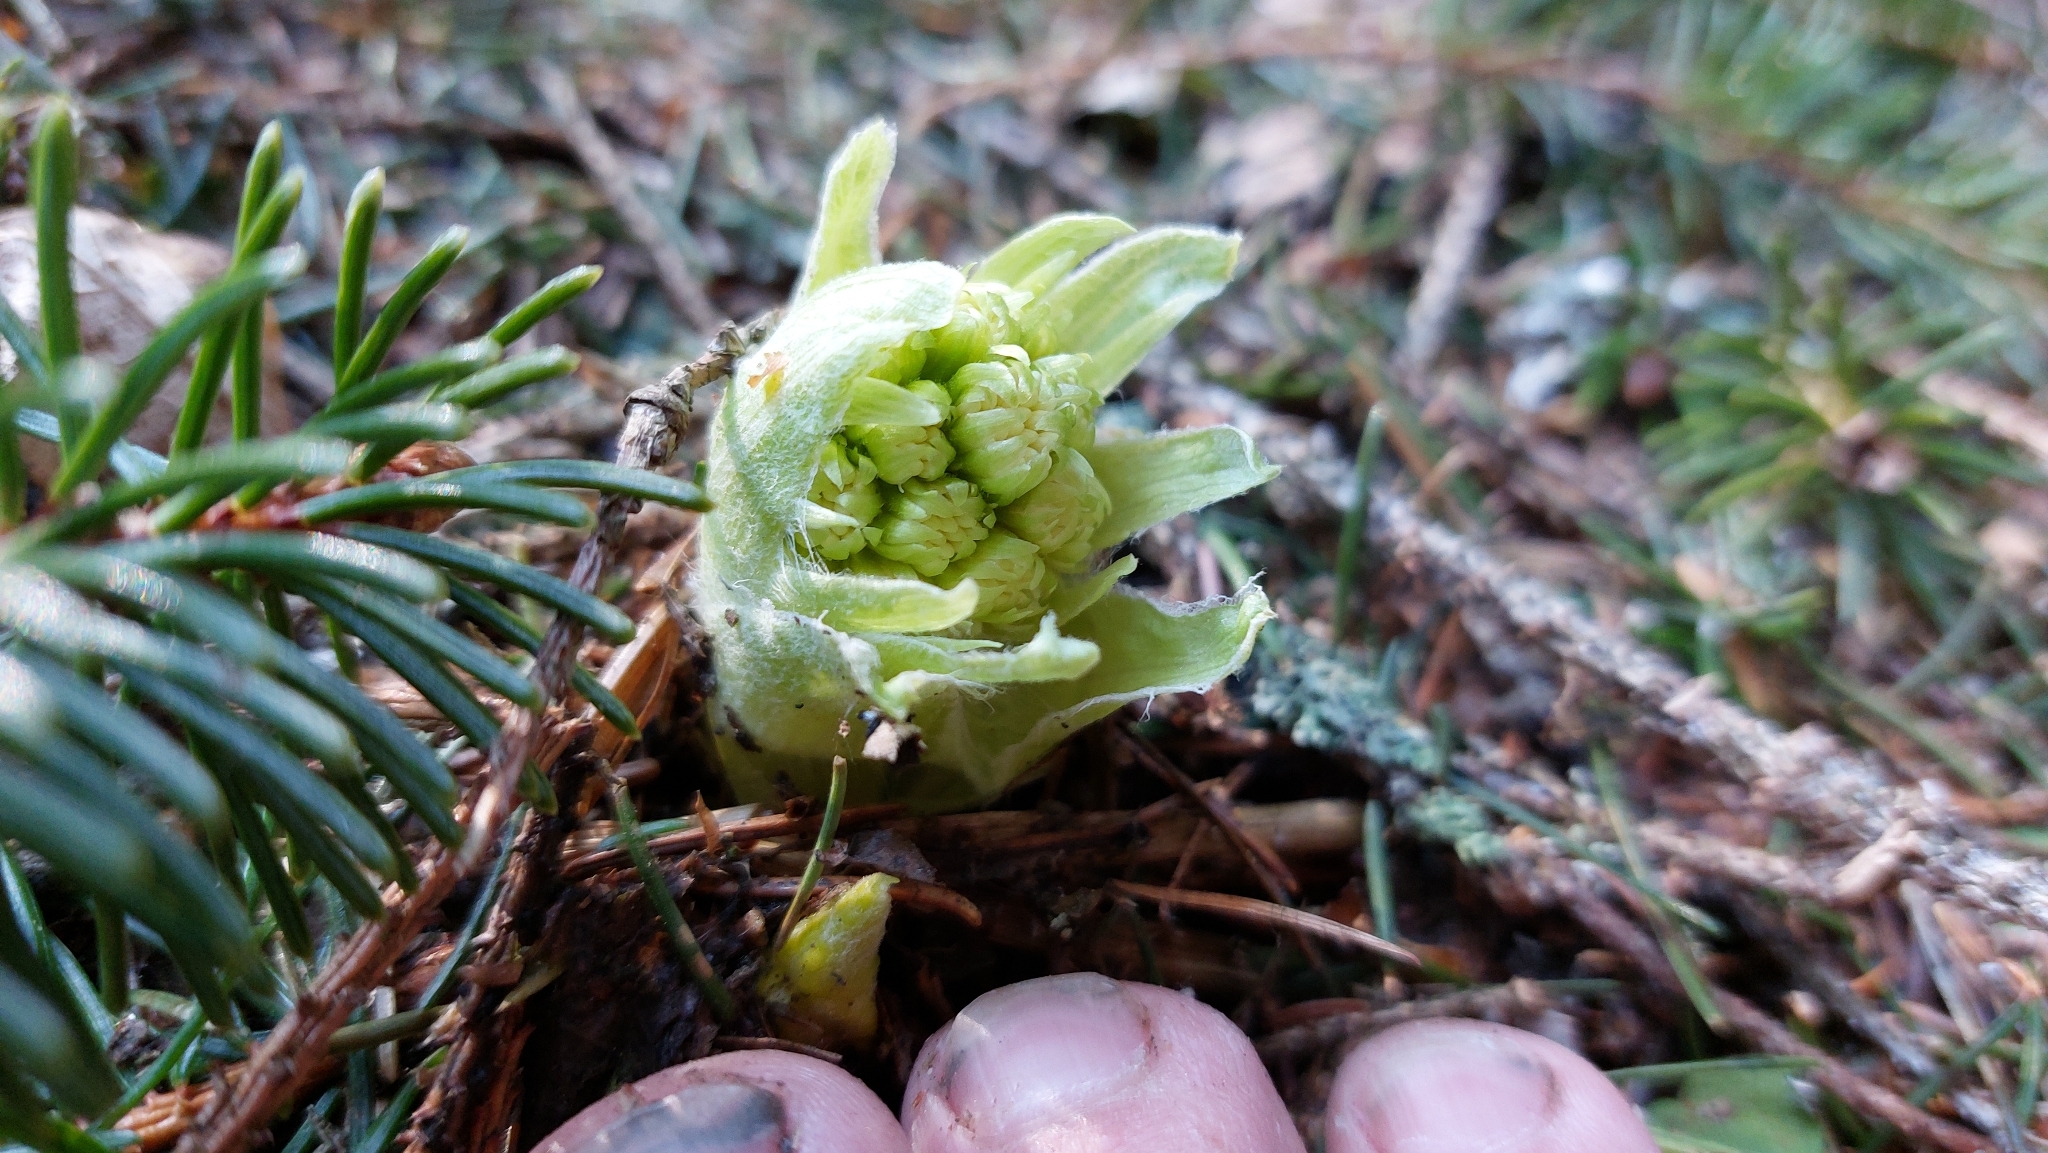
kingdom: Plantae
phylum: Tracheophyta
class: Magnoliopsida
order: Asterales
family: Asteraceae
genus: Petasites
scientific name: Petasites albus
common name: White butterbur
